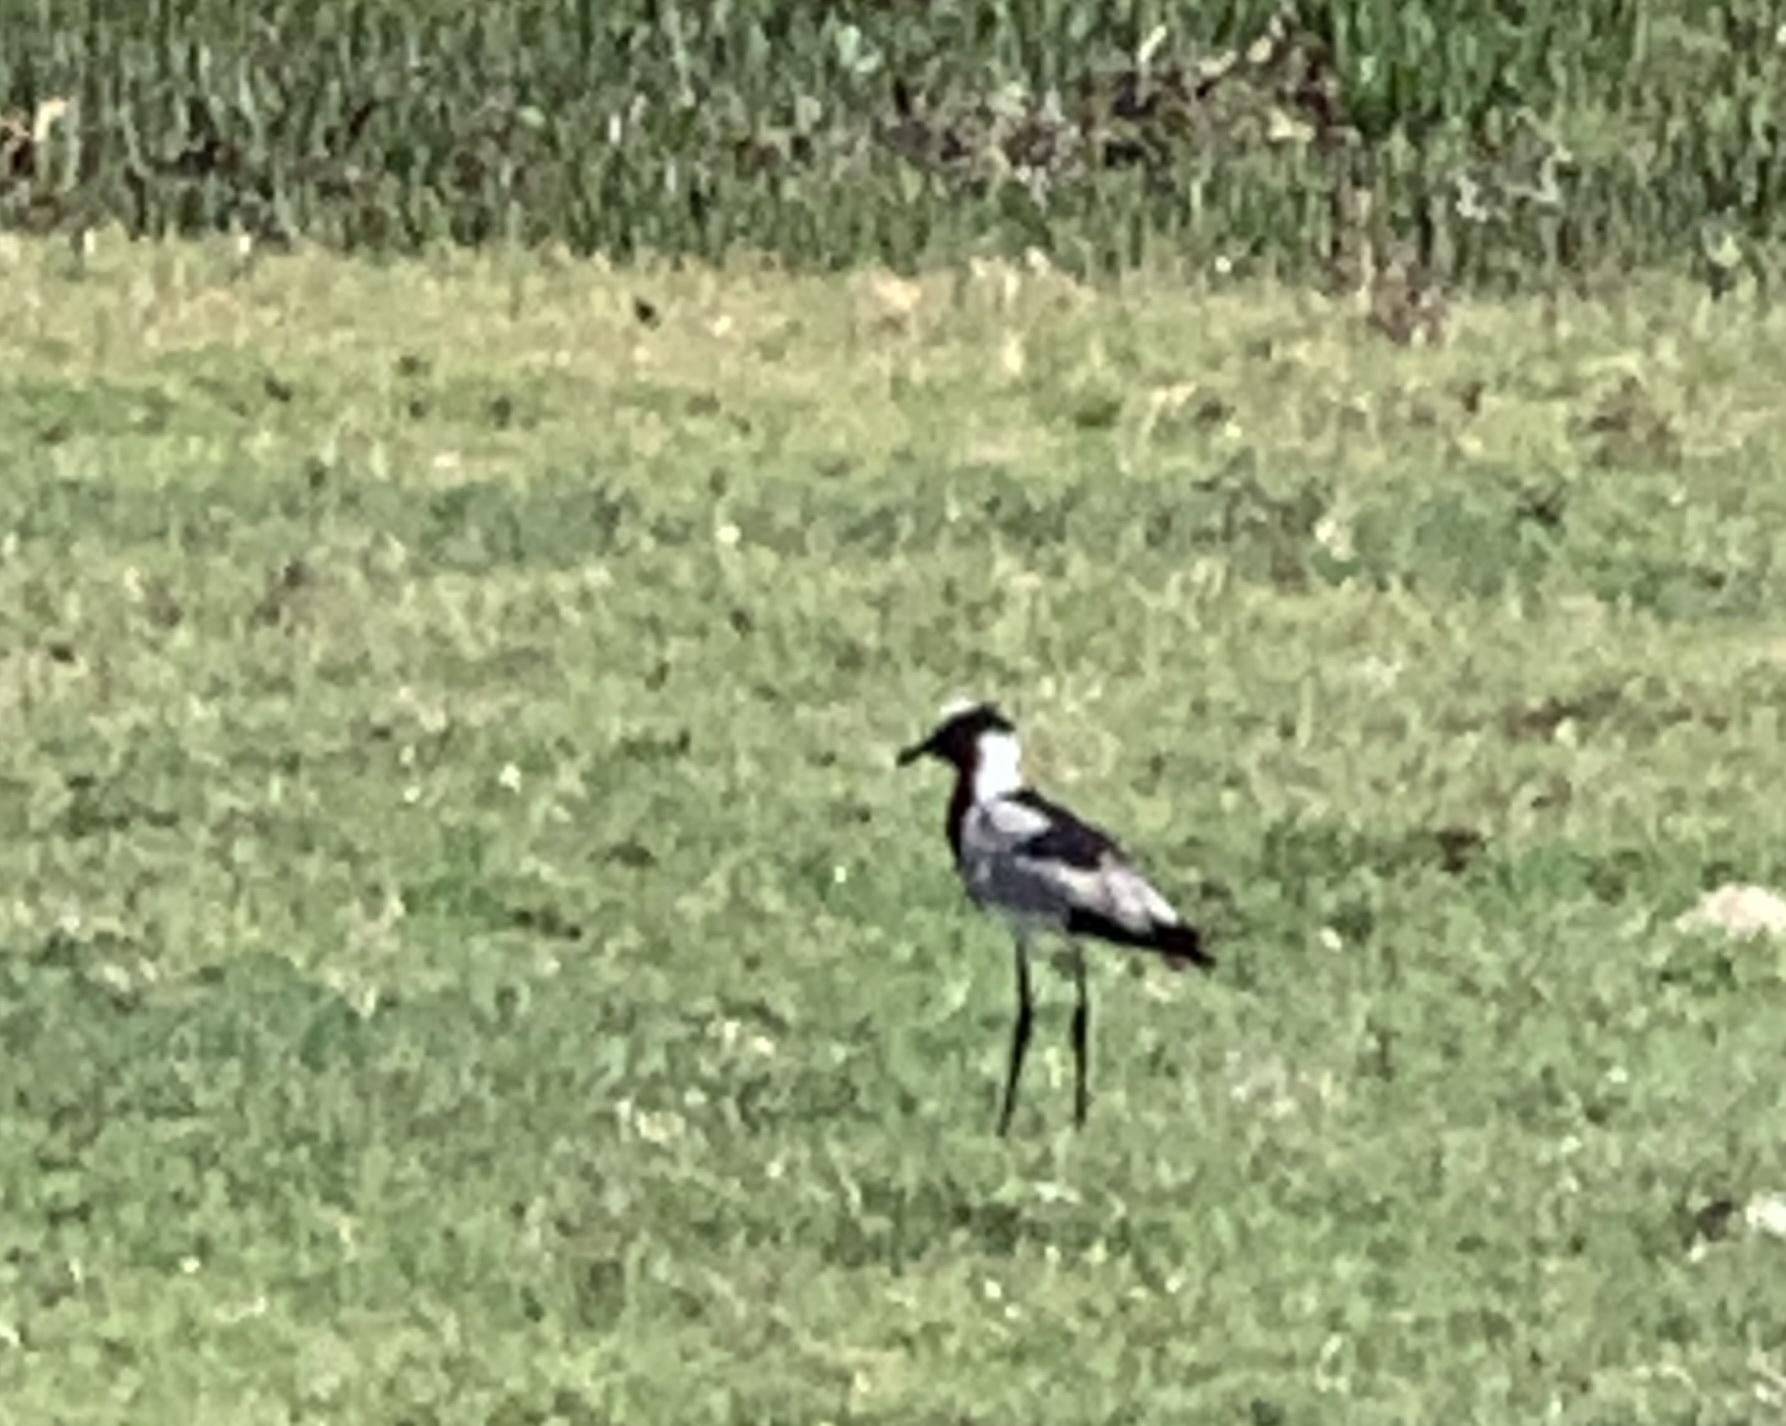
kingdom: Animalia
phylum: Chordata
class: Aves
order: Charadriiformes
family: Charadriidae
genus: Vanellus
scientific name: Vanellus armatus
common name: Blacksmith lapwing
